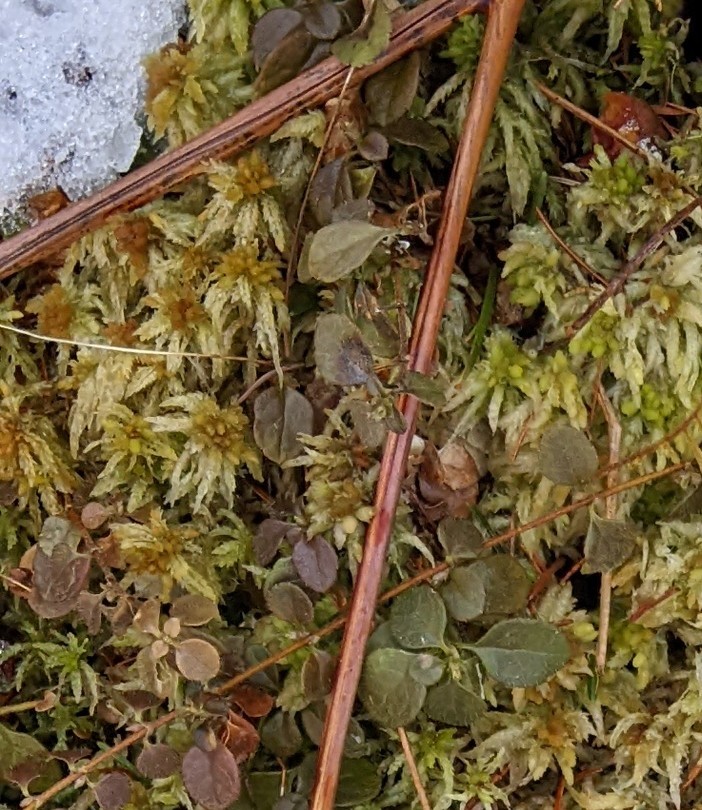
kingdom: Plantae
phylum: Tracheophyta
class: Magnoliopsida
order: Dipsacales
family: Caprifoliaceae
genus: Linnaea
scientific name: Linnaea borealis
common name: Twinflower
